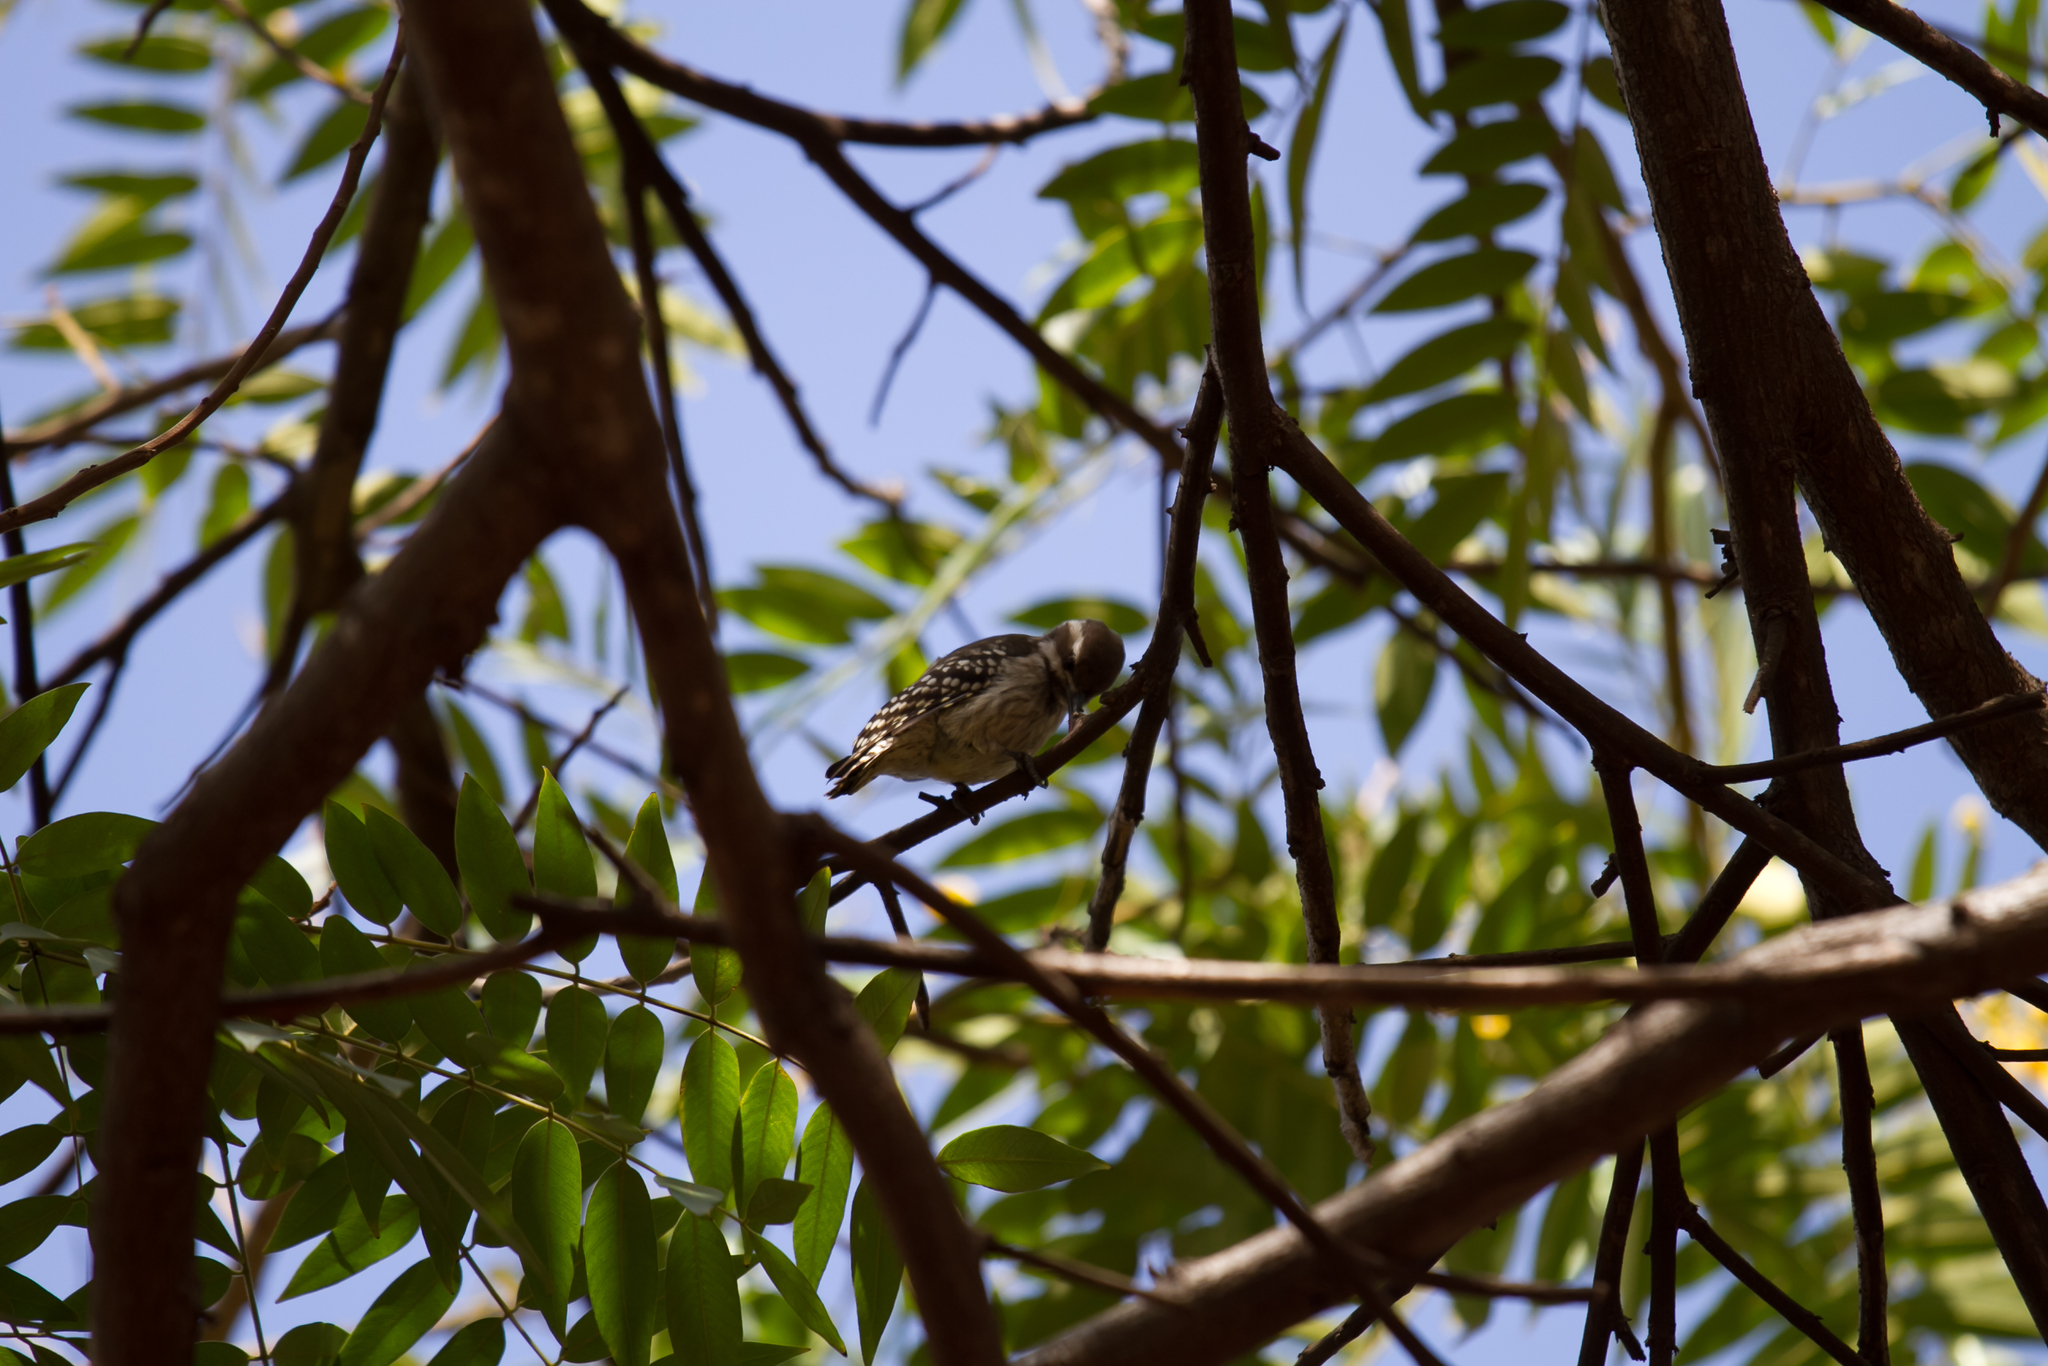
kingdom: Animalia
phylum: Chordata
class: Aves
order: Piciformes
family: Picidae
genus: Dendropicos
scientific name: Dendropicos obsoletus
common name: Brown-backed woodpecker
